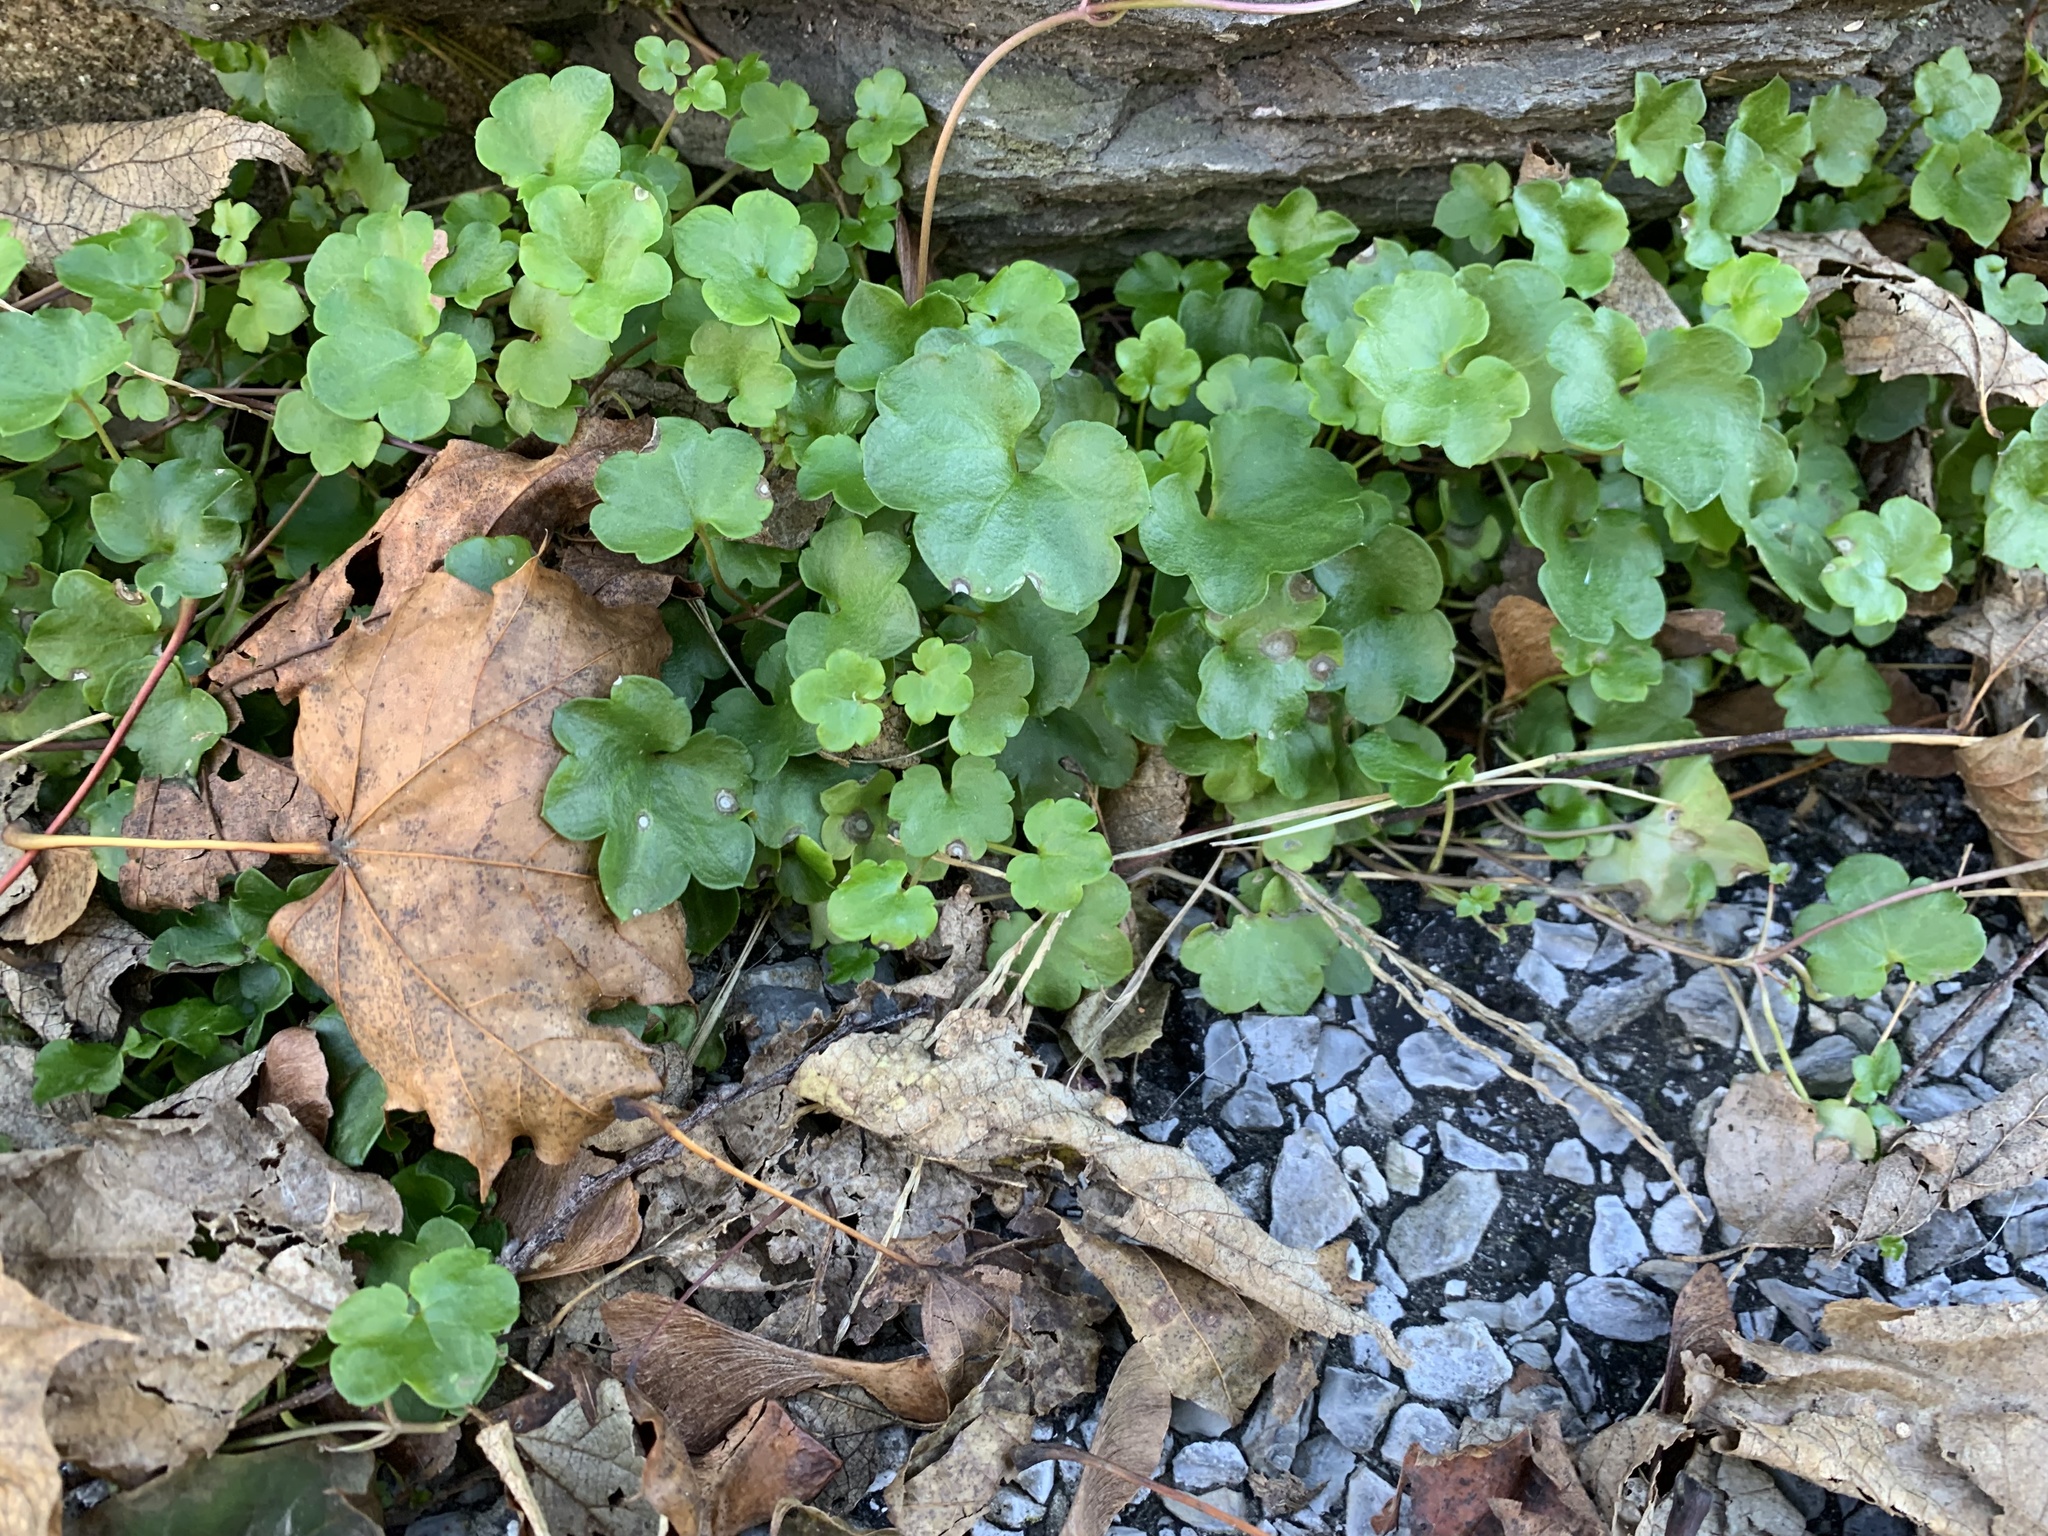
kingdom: Plantae
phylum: Tracheophyta
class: Magnoliopsida
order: Lamiales
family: Plantaginaceae
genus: Cymbalaria
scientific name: Cymbalaria muralis
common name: Ivy-leaved toadflax
